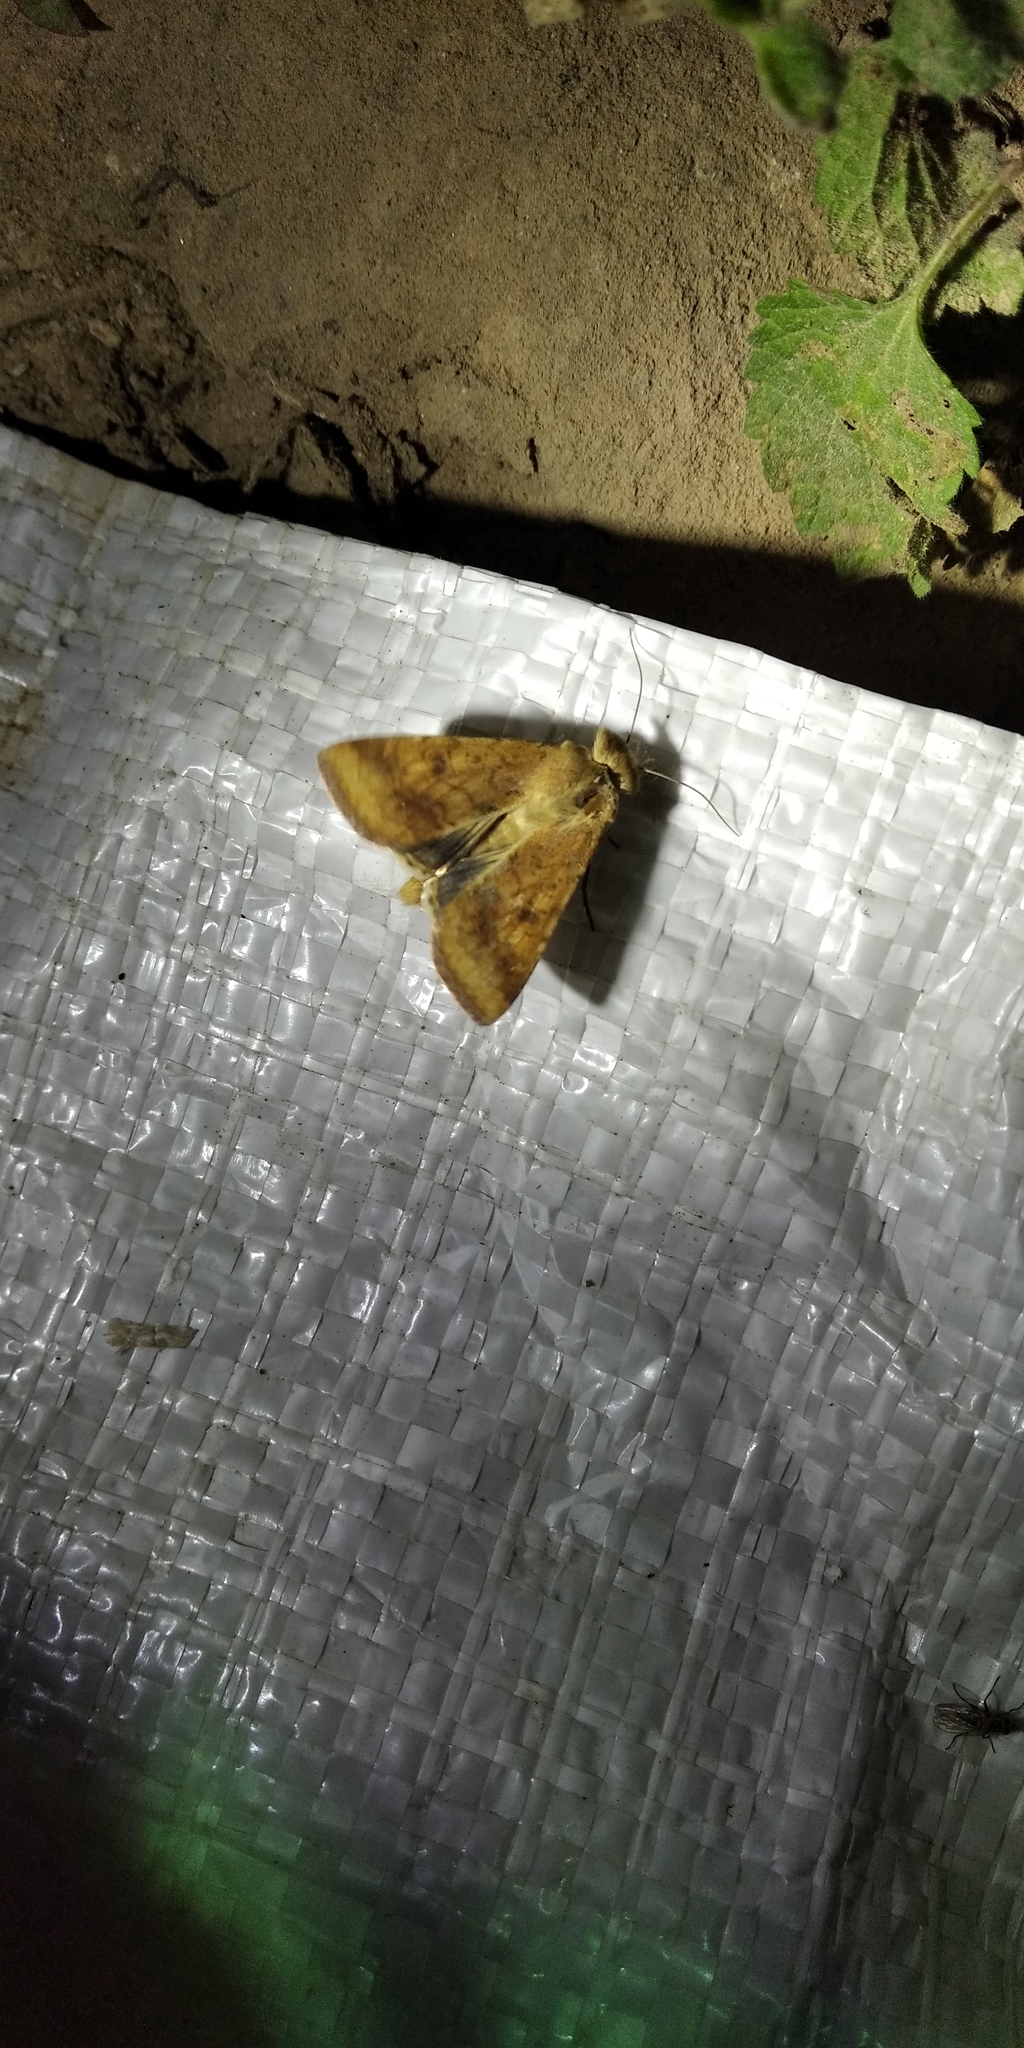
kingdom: Animalia
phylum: Arthropoda
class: Insecta
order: Lepidoptera
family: Noctuidae
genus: Helicoverpa
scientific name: Helicoverpa armigera
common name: Cotton bollworm
